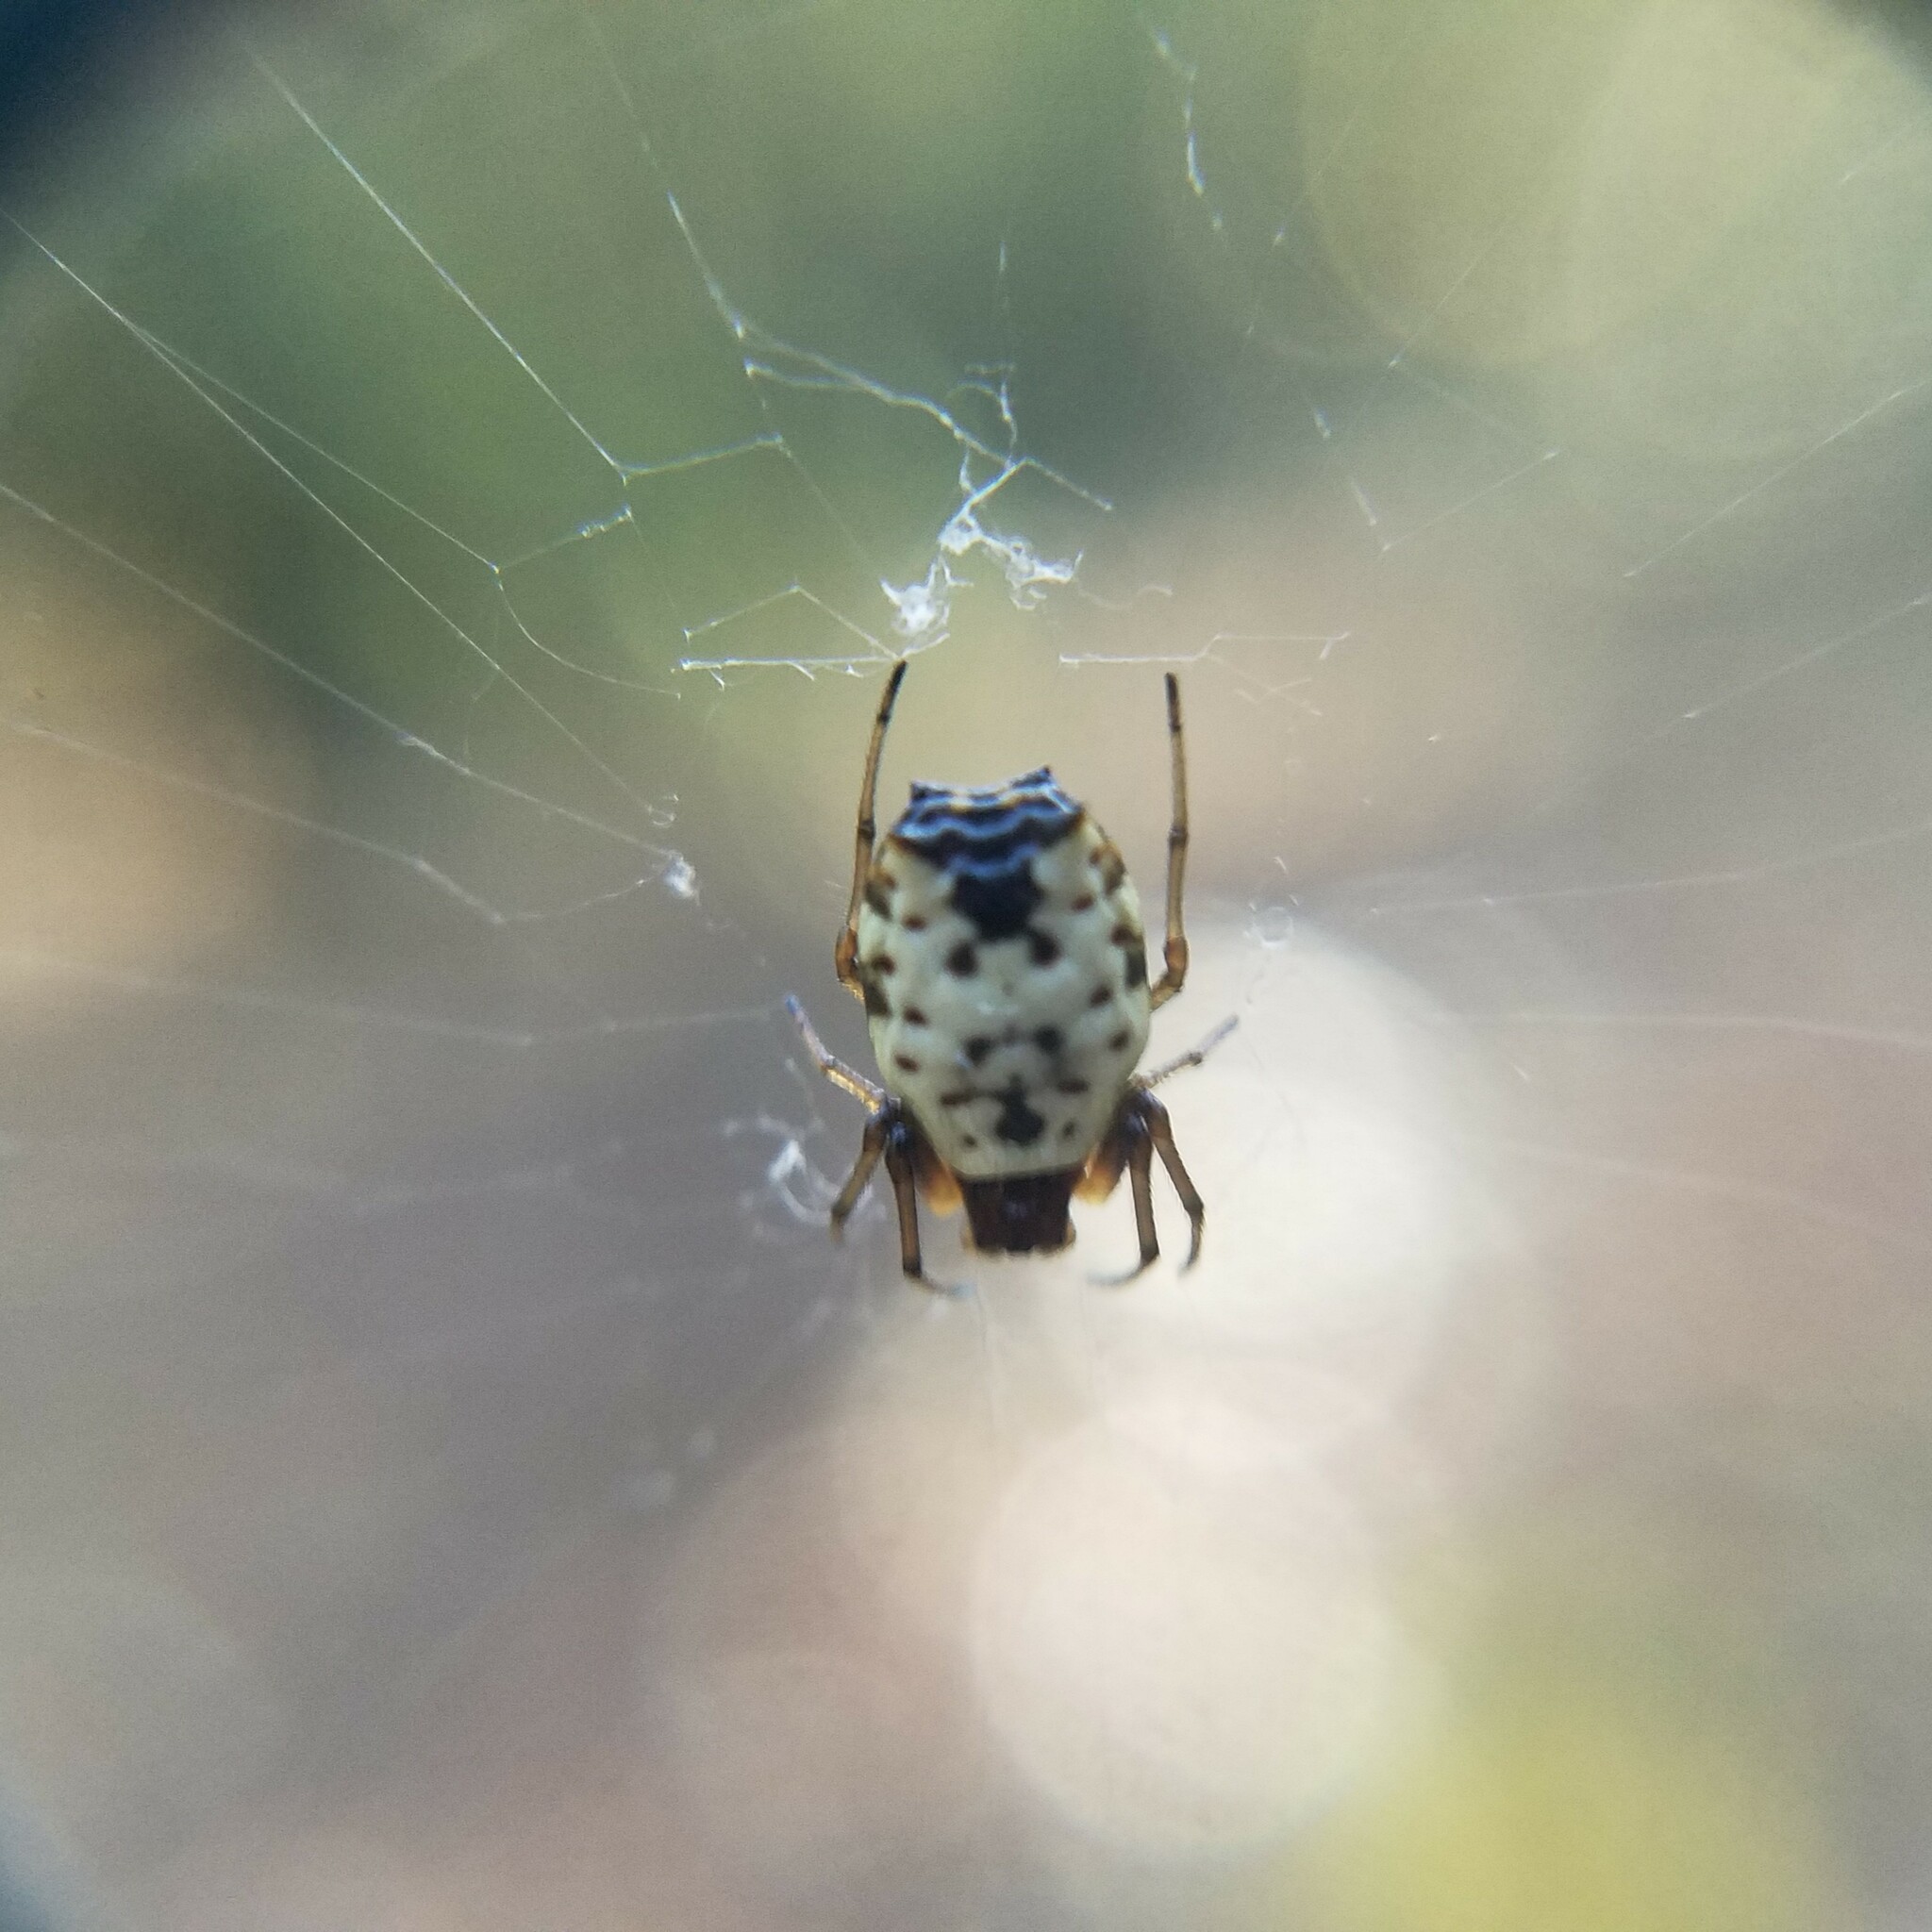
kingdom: Animalia
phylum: Arthropoda
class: Arachnida
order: Araneae
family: Araneidae
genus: Micrathena
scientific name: Micrathena mitrata
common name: Orb weavers
